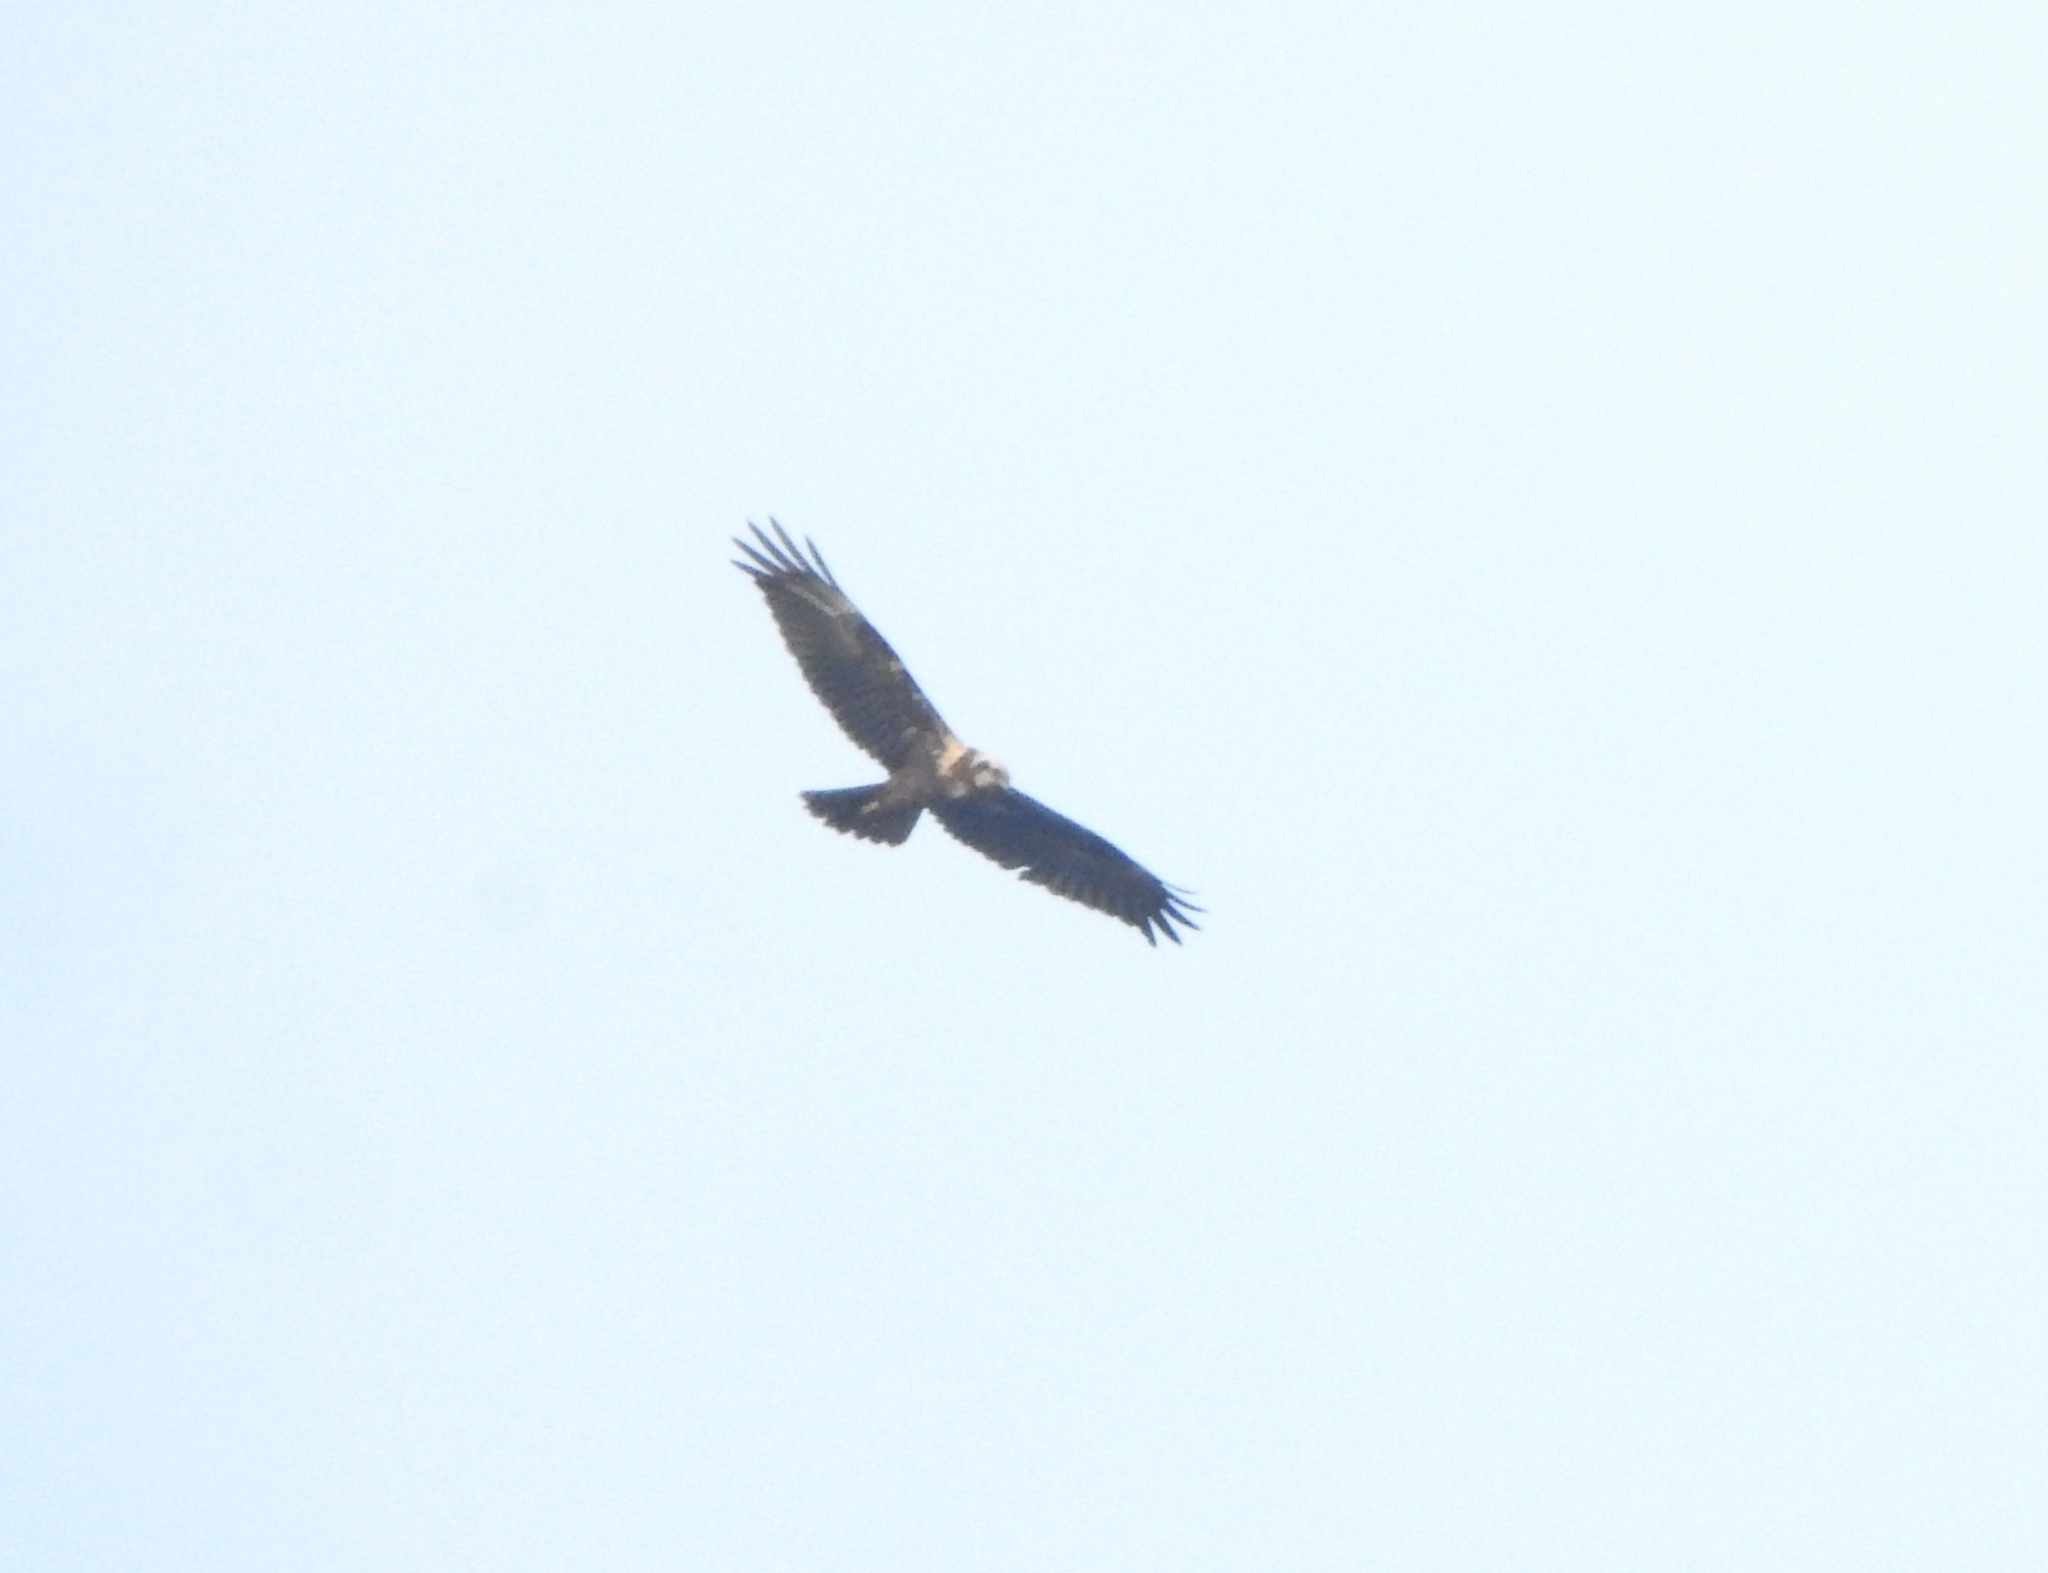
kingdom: Animalia
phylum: Chordata
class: Aves
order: Accipitriformes
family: Accipitridae
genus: Circus
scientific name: Circus aeruginosus
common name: Western marsh harrier
